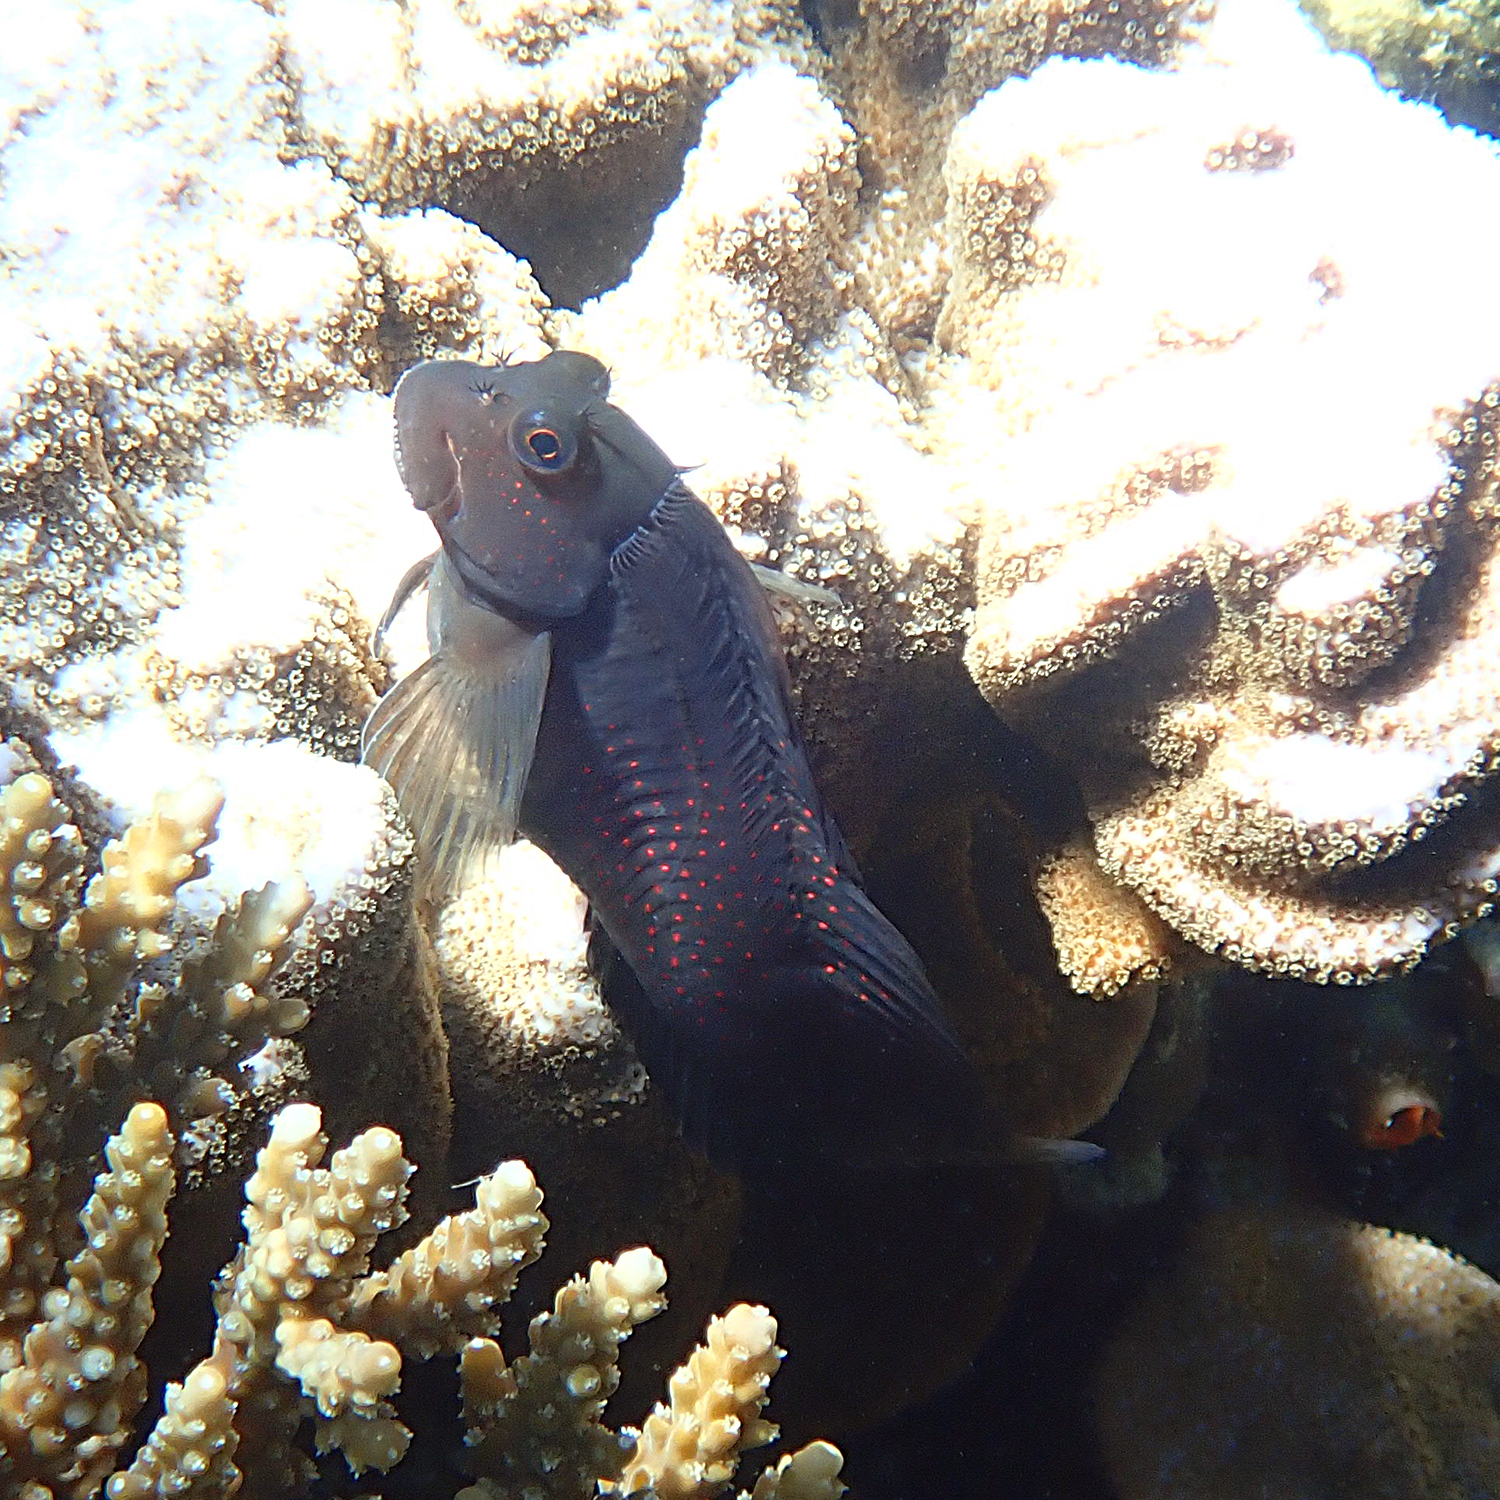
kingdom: Animalia
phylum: Chordata
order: Perciformes
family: Blenniidae
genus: Cirripectes
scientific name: Cirripectes chelomatus
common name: Lady musgrave blenny
